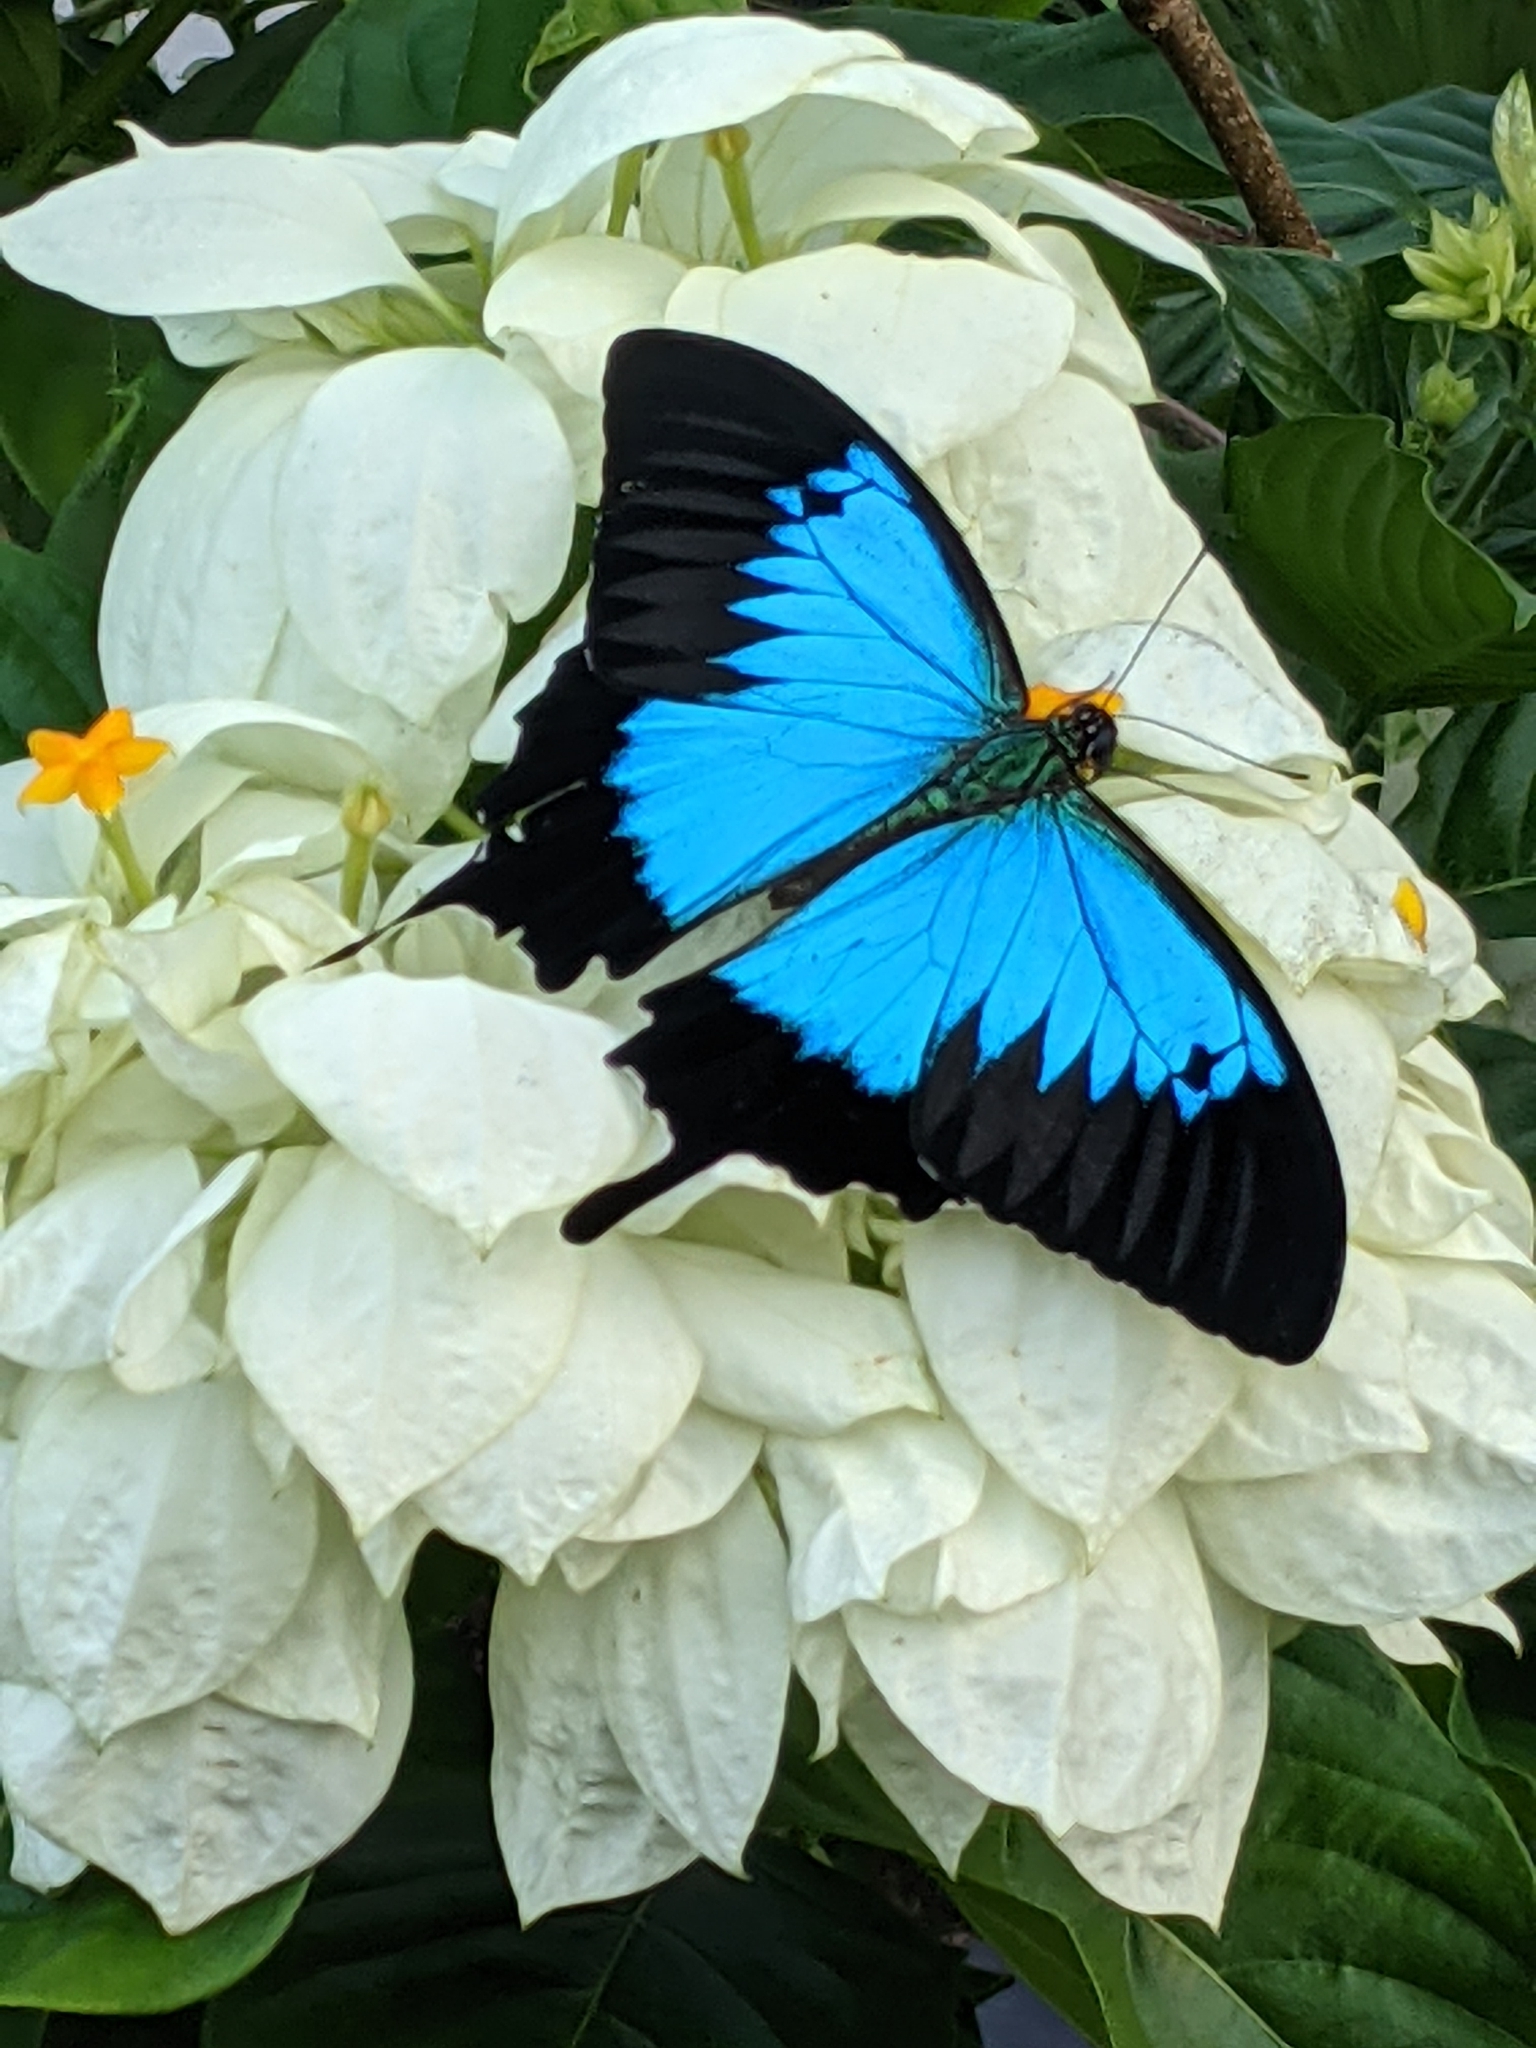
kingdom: Animalia
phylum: Arthropoda
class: Insecta
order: Lepidoptera
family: Papilionidae
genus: Papilio
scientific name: Papilio ulysses
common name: Blue emperor
